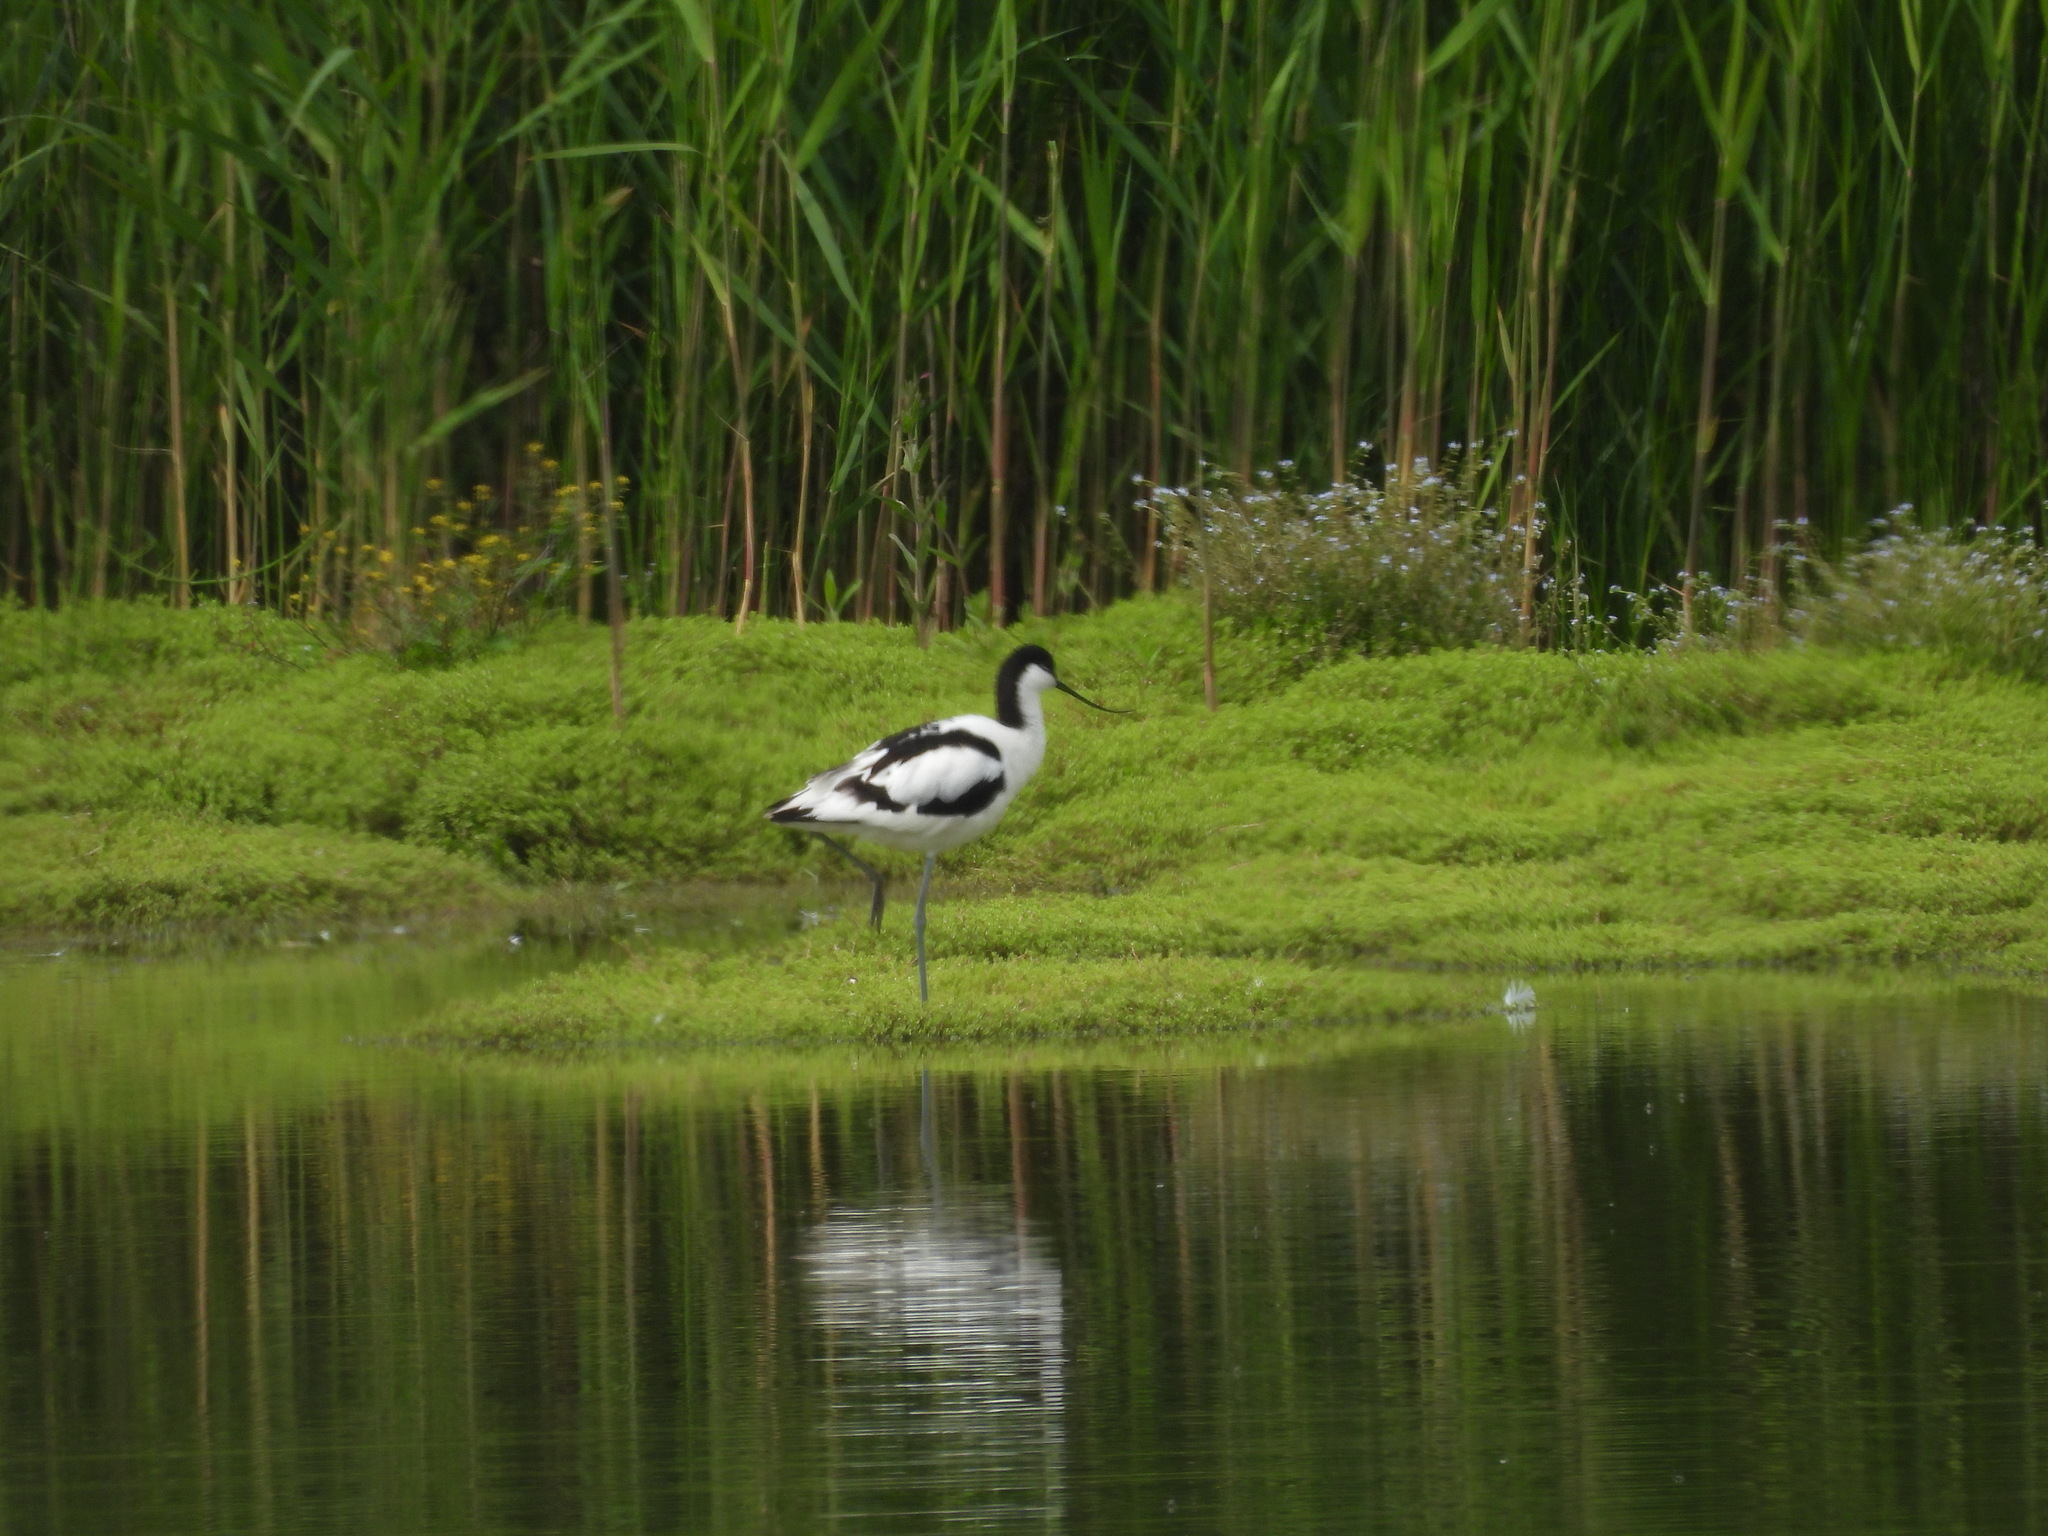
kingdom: Animalia
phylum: Chordata
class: Aves
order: Charadriiformes
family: Recurvirostridae
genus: Recurvirostra
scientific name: Recurvirostra avosetta
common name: Pied avocet
